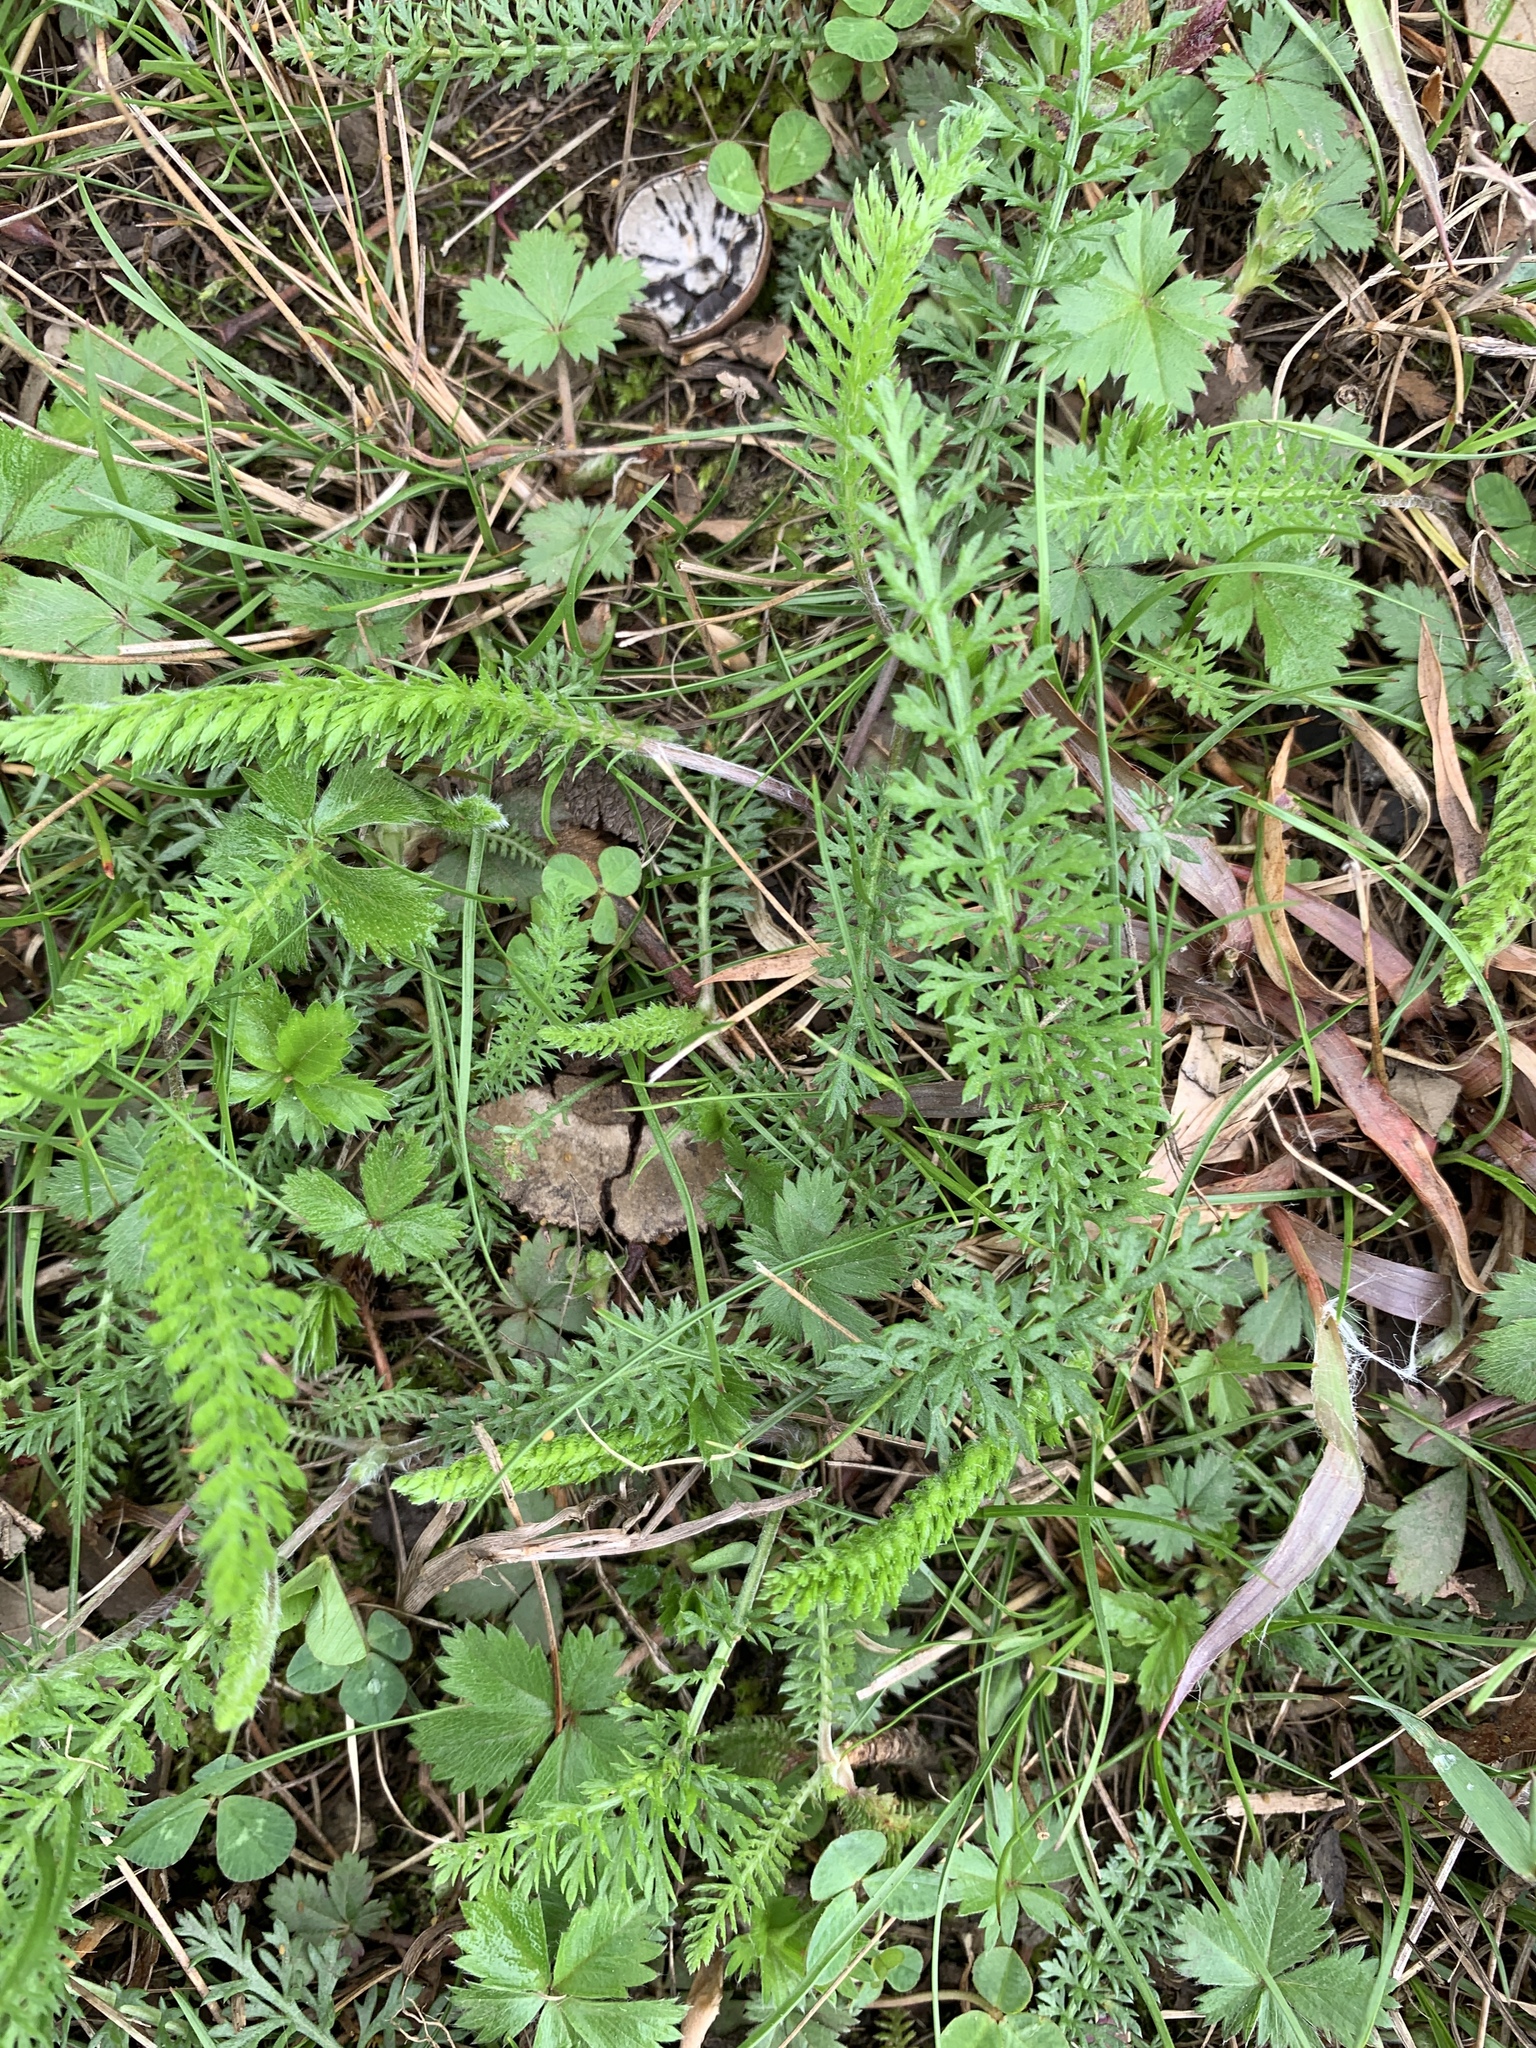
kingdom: Plantae
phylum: Tracheophyta
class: Magnoliopsida
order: Asterales
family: Asteraceae
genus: Achillea
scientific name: Achillea millefolium
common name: Yarrow
